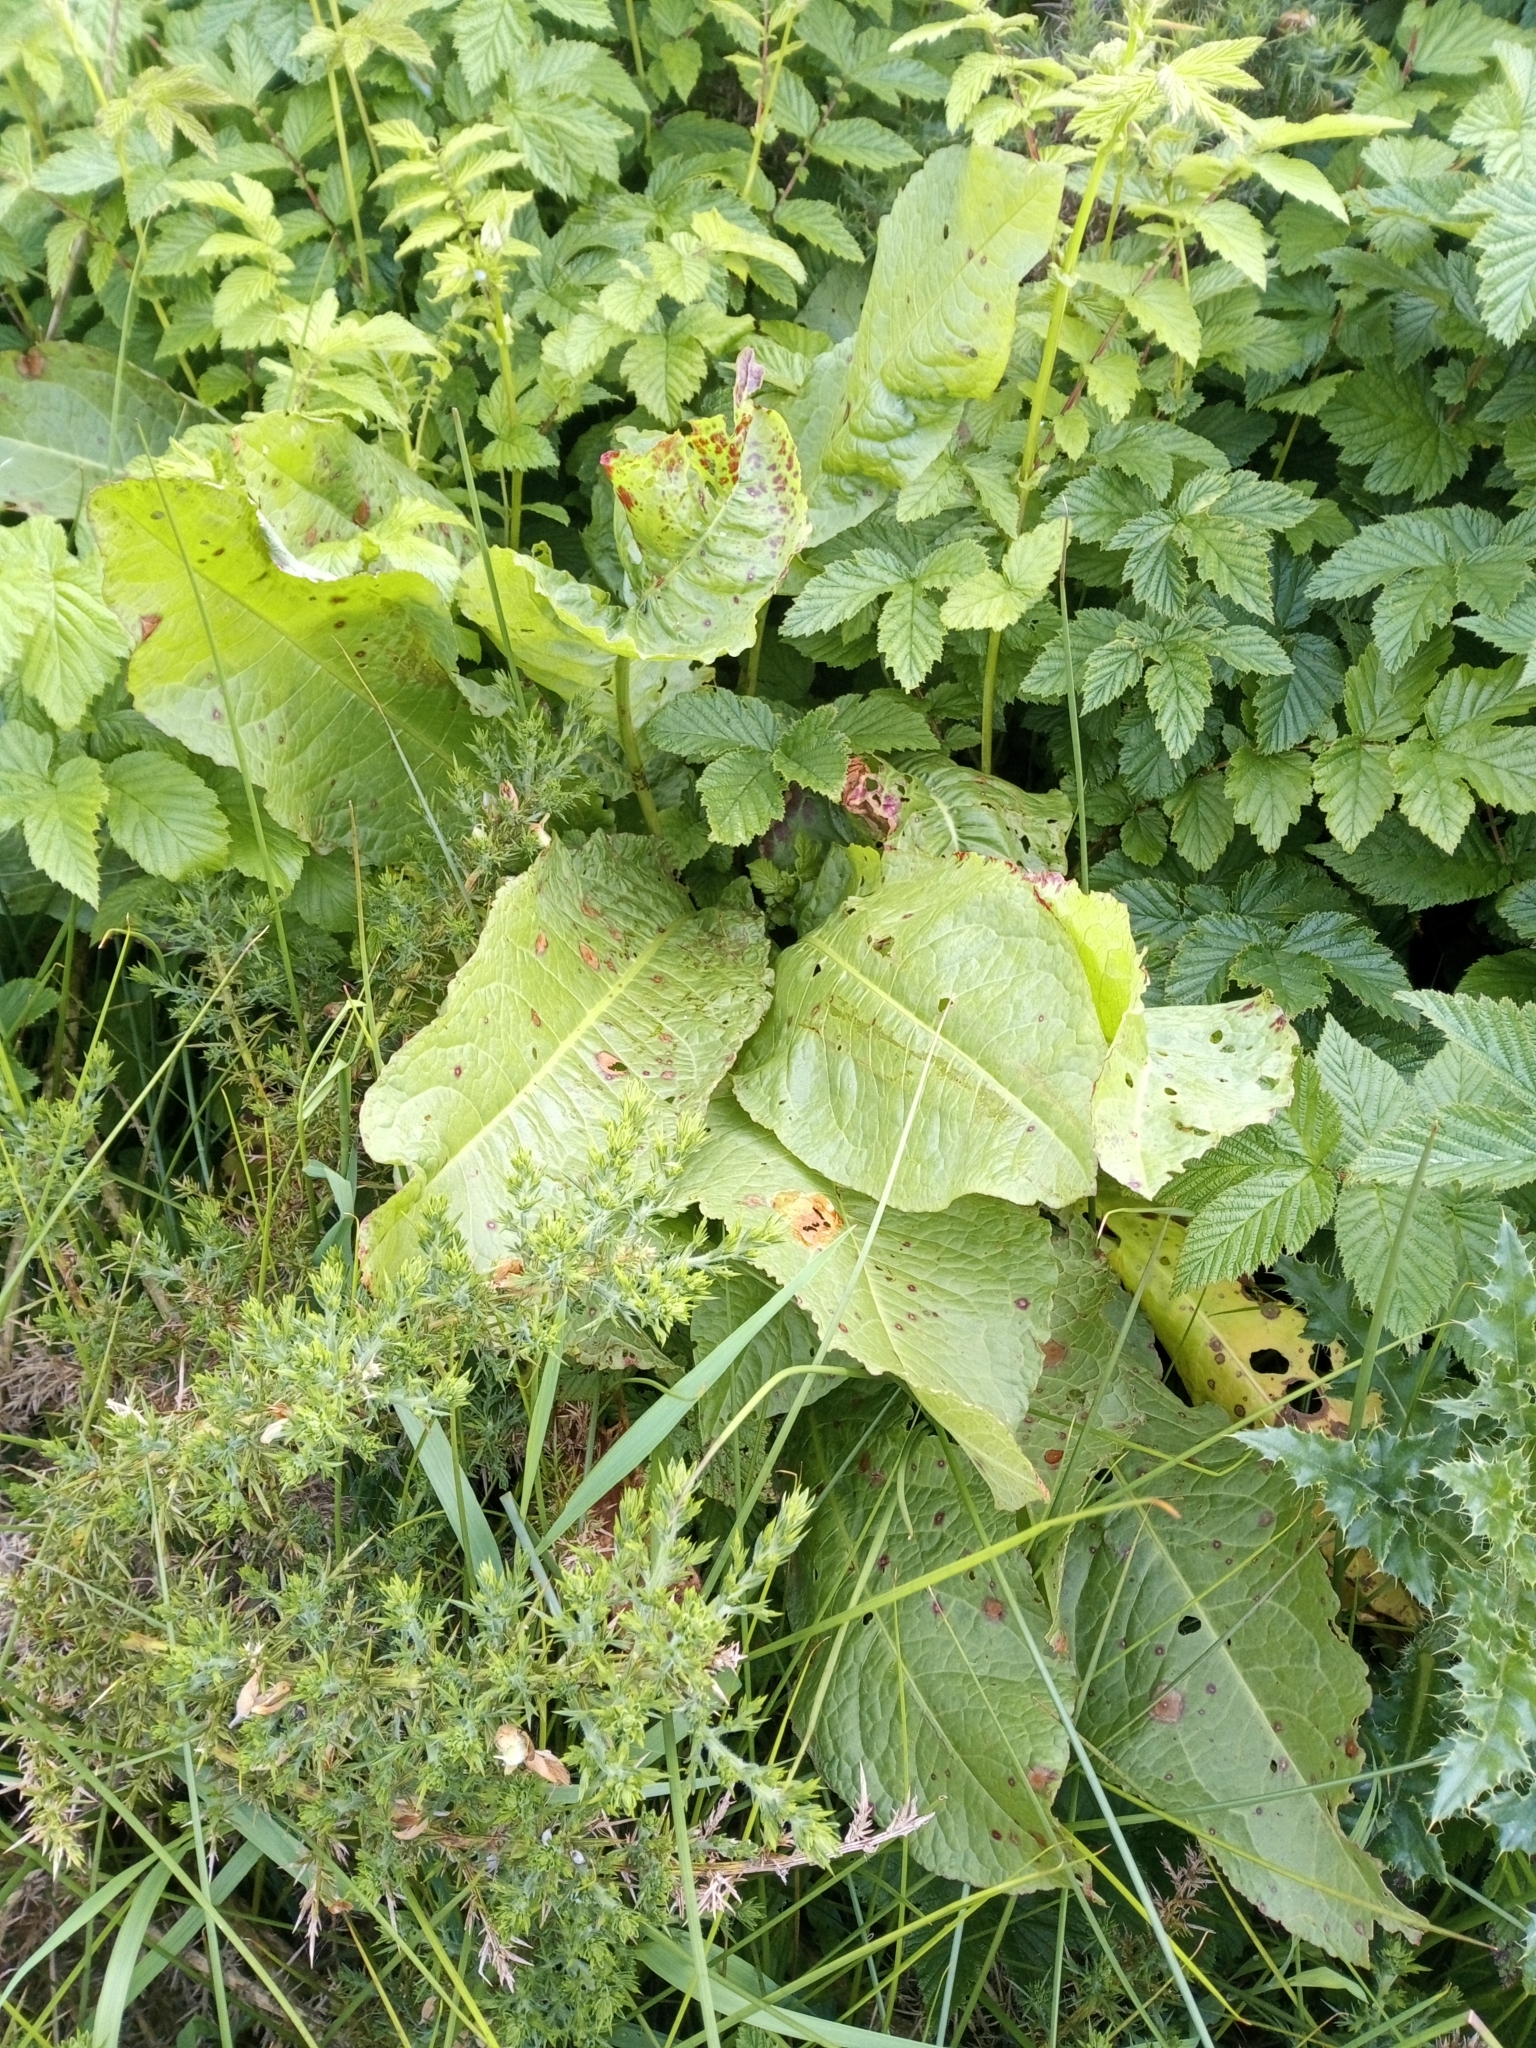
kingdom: Plantae
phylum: Tracheophyta
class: Magnoliopsida
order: Caryophyllales
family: Polygonaceae
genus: Rumex
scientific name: Rumex obtusifolius
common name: Bitter dock
